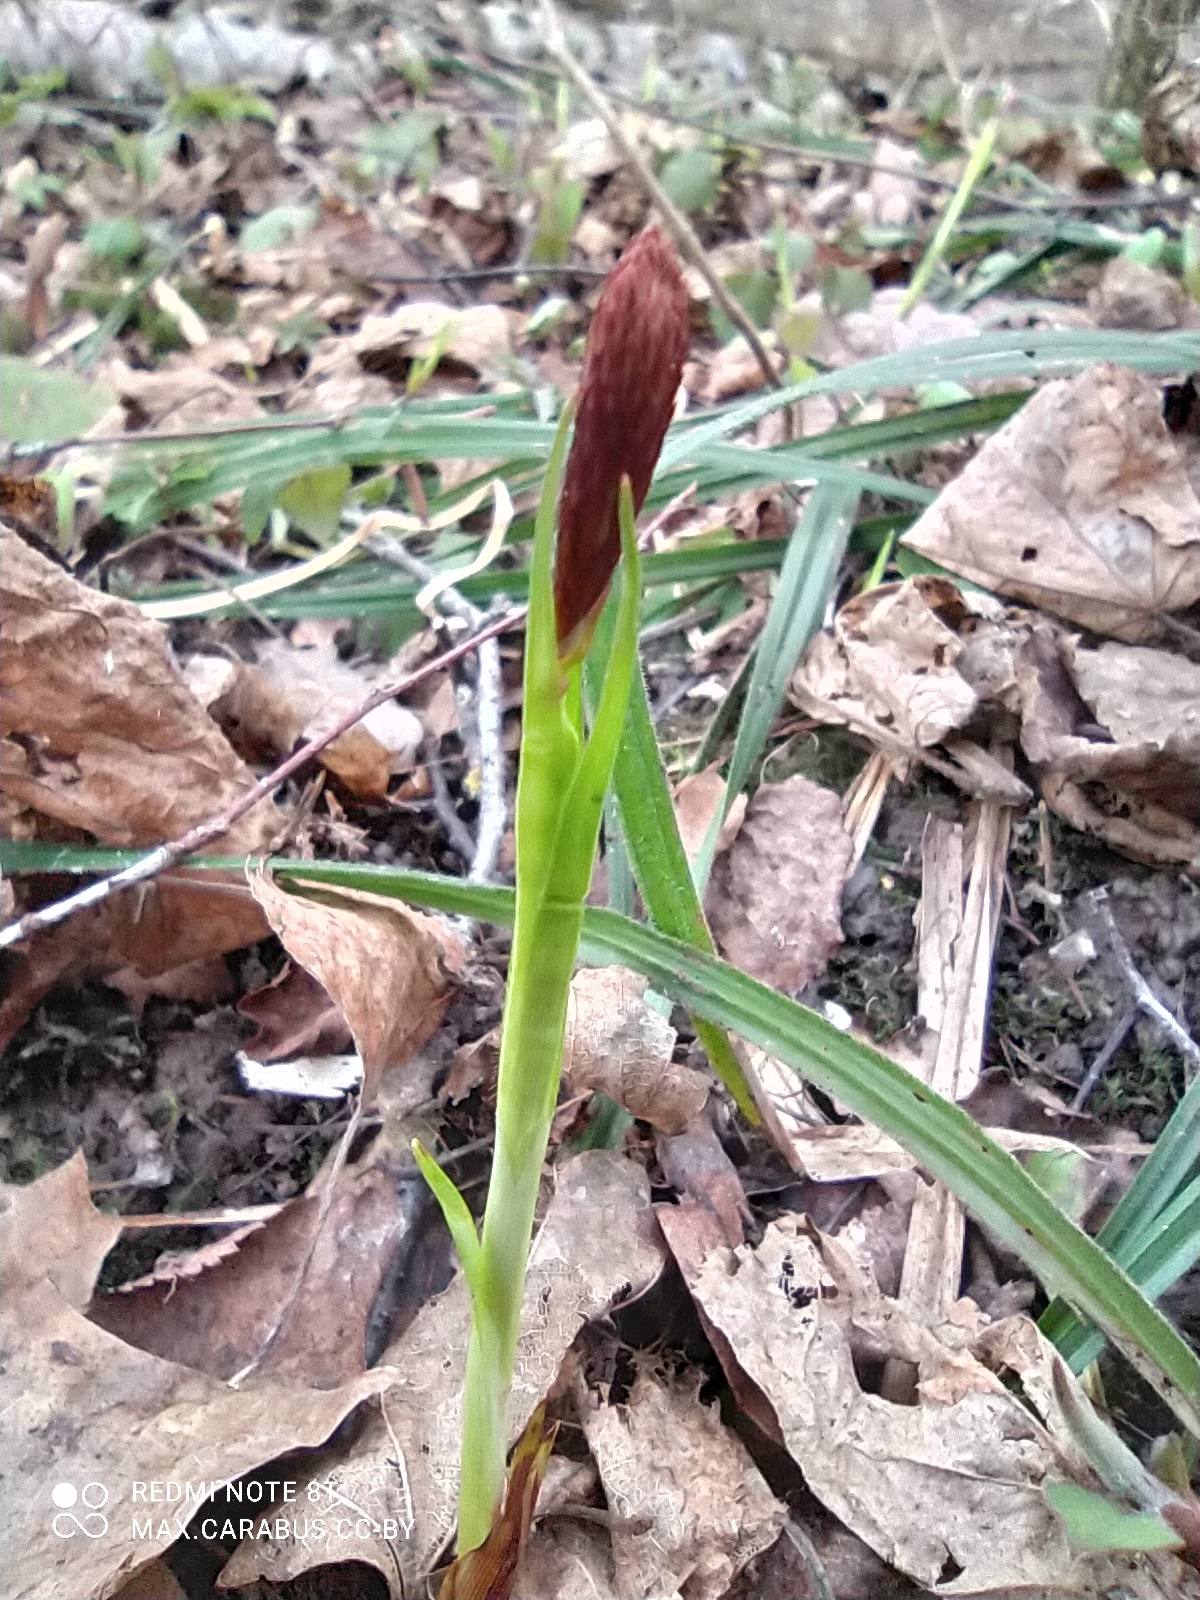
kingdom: Plantae
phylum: Tracheophyta
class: Liliopsida
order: Poales
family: Cyperaceae
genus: Carex
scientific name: Carex pilosa
